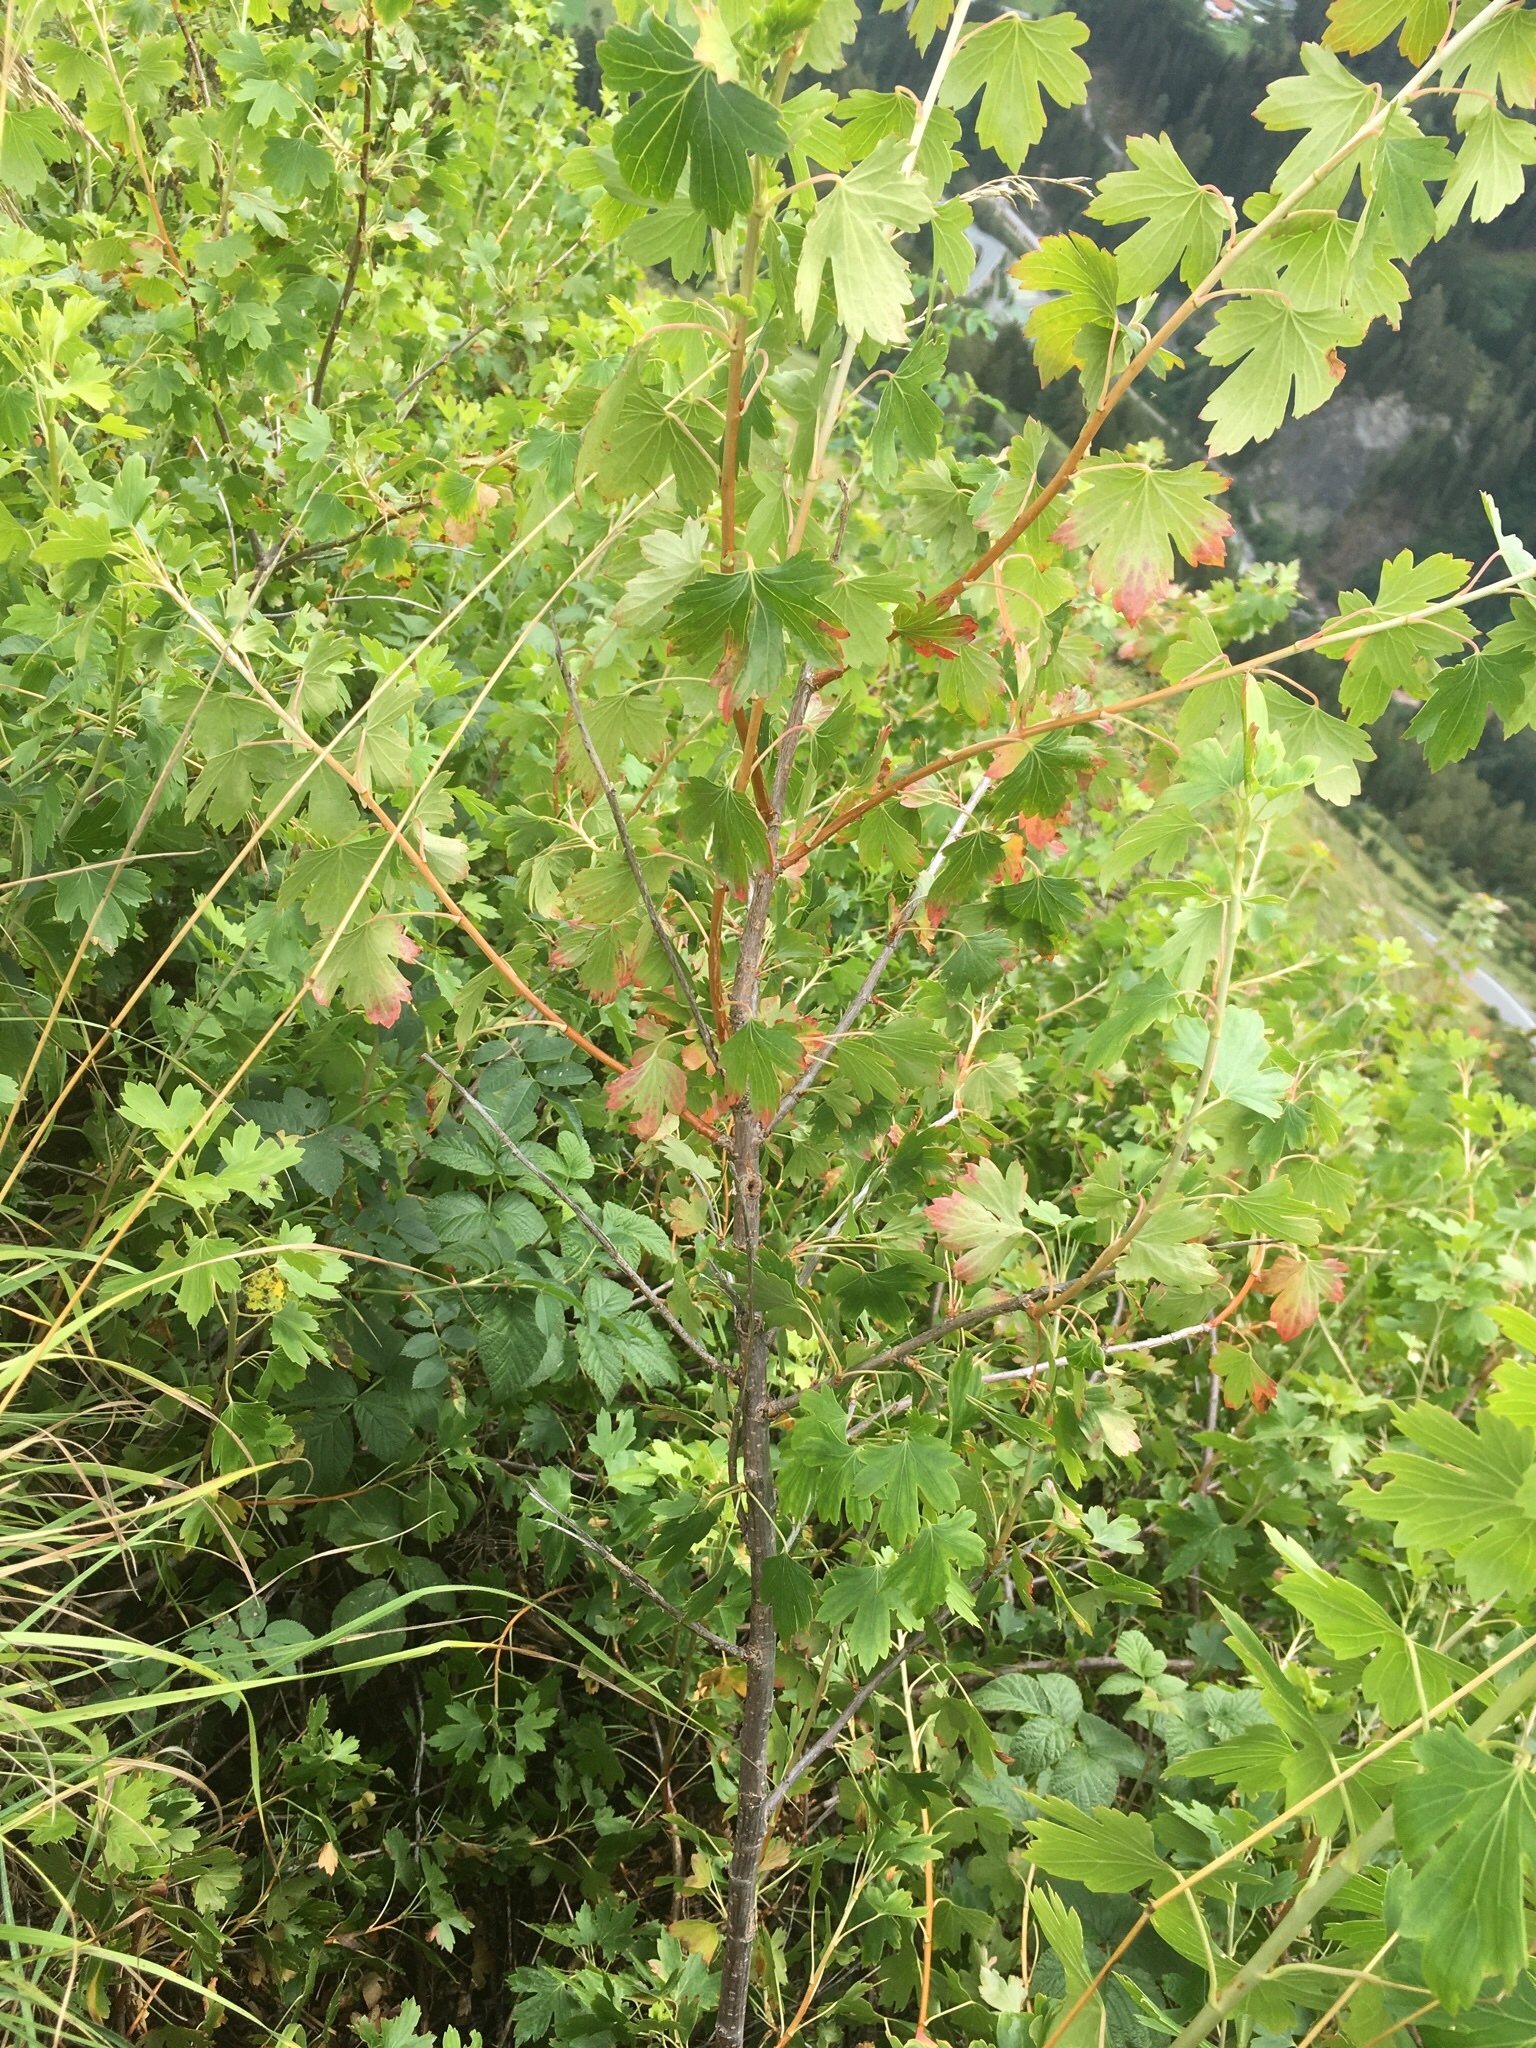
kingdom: Plantae
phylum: Tracheophyta
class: Magnoliopsida
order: Saxifragales
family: Grossulariaceae
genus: Ribes
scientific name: Ribes aureum
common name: Golden currant
